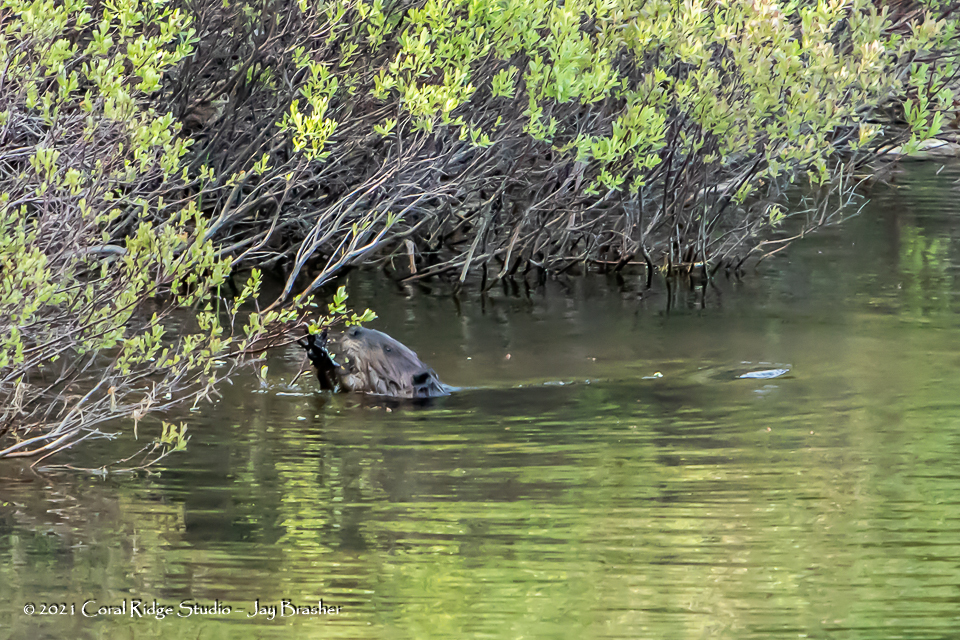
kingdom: Animalia
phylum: Chordata
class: Mammalia
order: Rodentia
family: Castoridae
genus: Castor
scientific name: Castor canadensis
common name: American beaver
